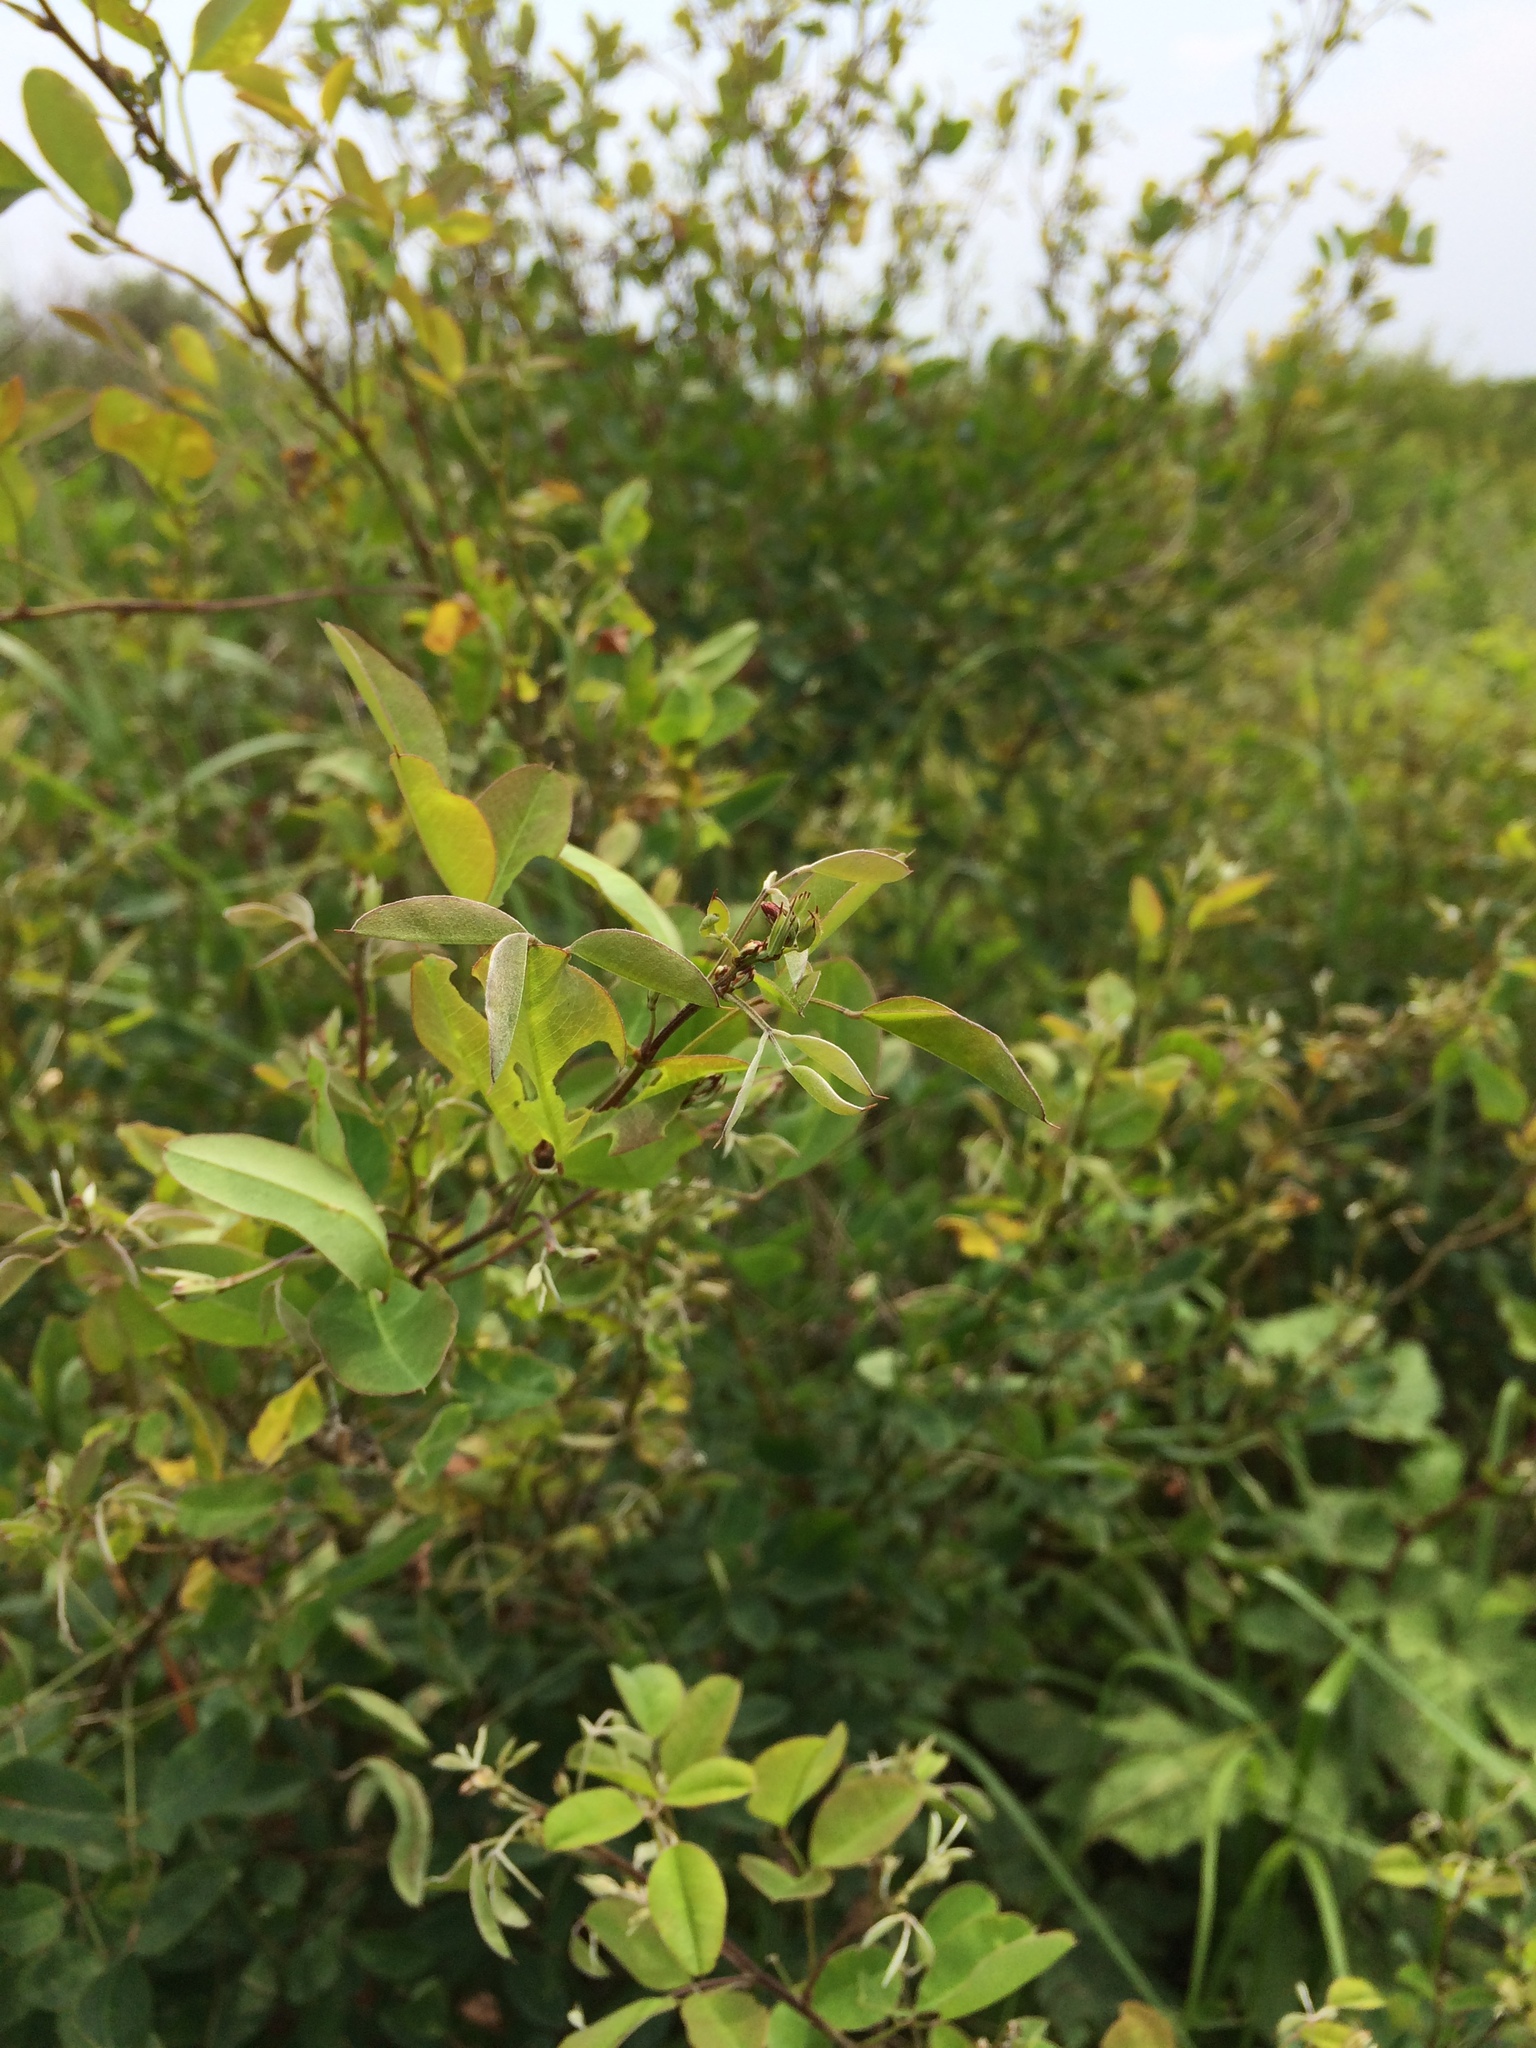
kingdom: Plantae
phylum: Tracheophyta
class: Magnoliopsida
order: Fabales
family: Fabaceae
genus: Lespedeza
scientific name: Lespedeza bicolor
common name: Shrub lespedeza
